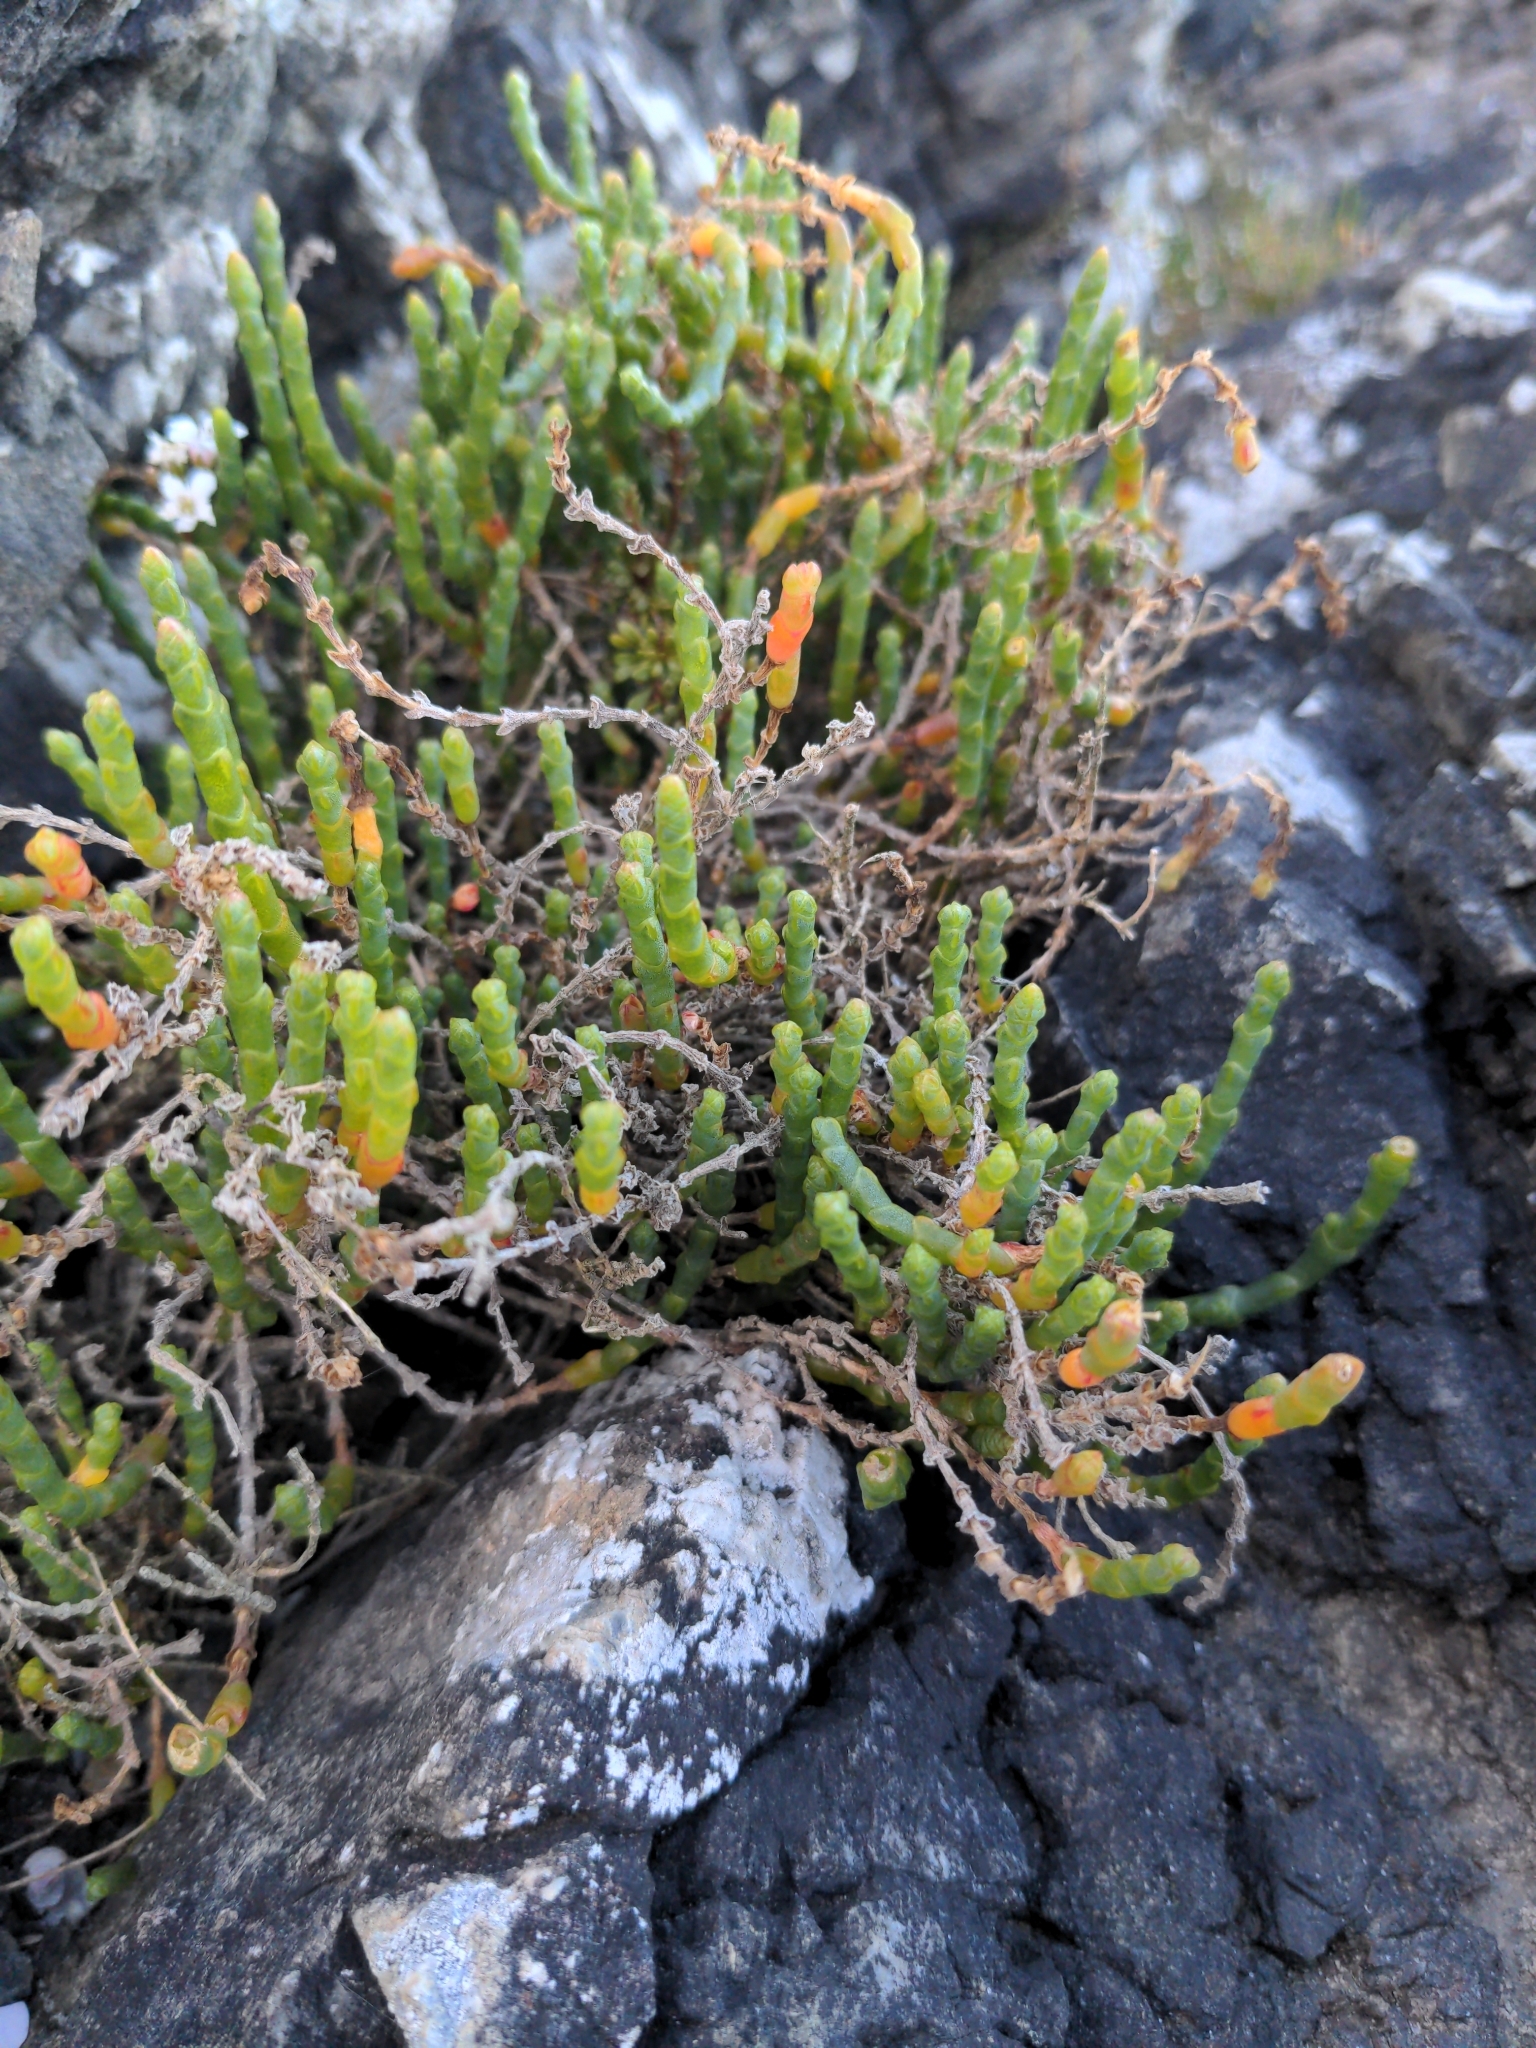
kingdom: Plantae
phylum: Tracheophyta
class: Magnoliopsida
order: Caryophyllales
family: Amaranthaceae
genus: Salicornia
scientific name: Salicornia quinqueflora
